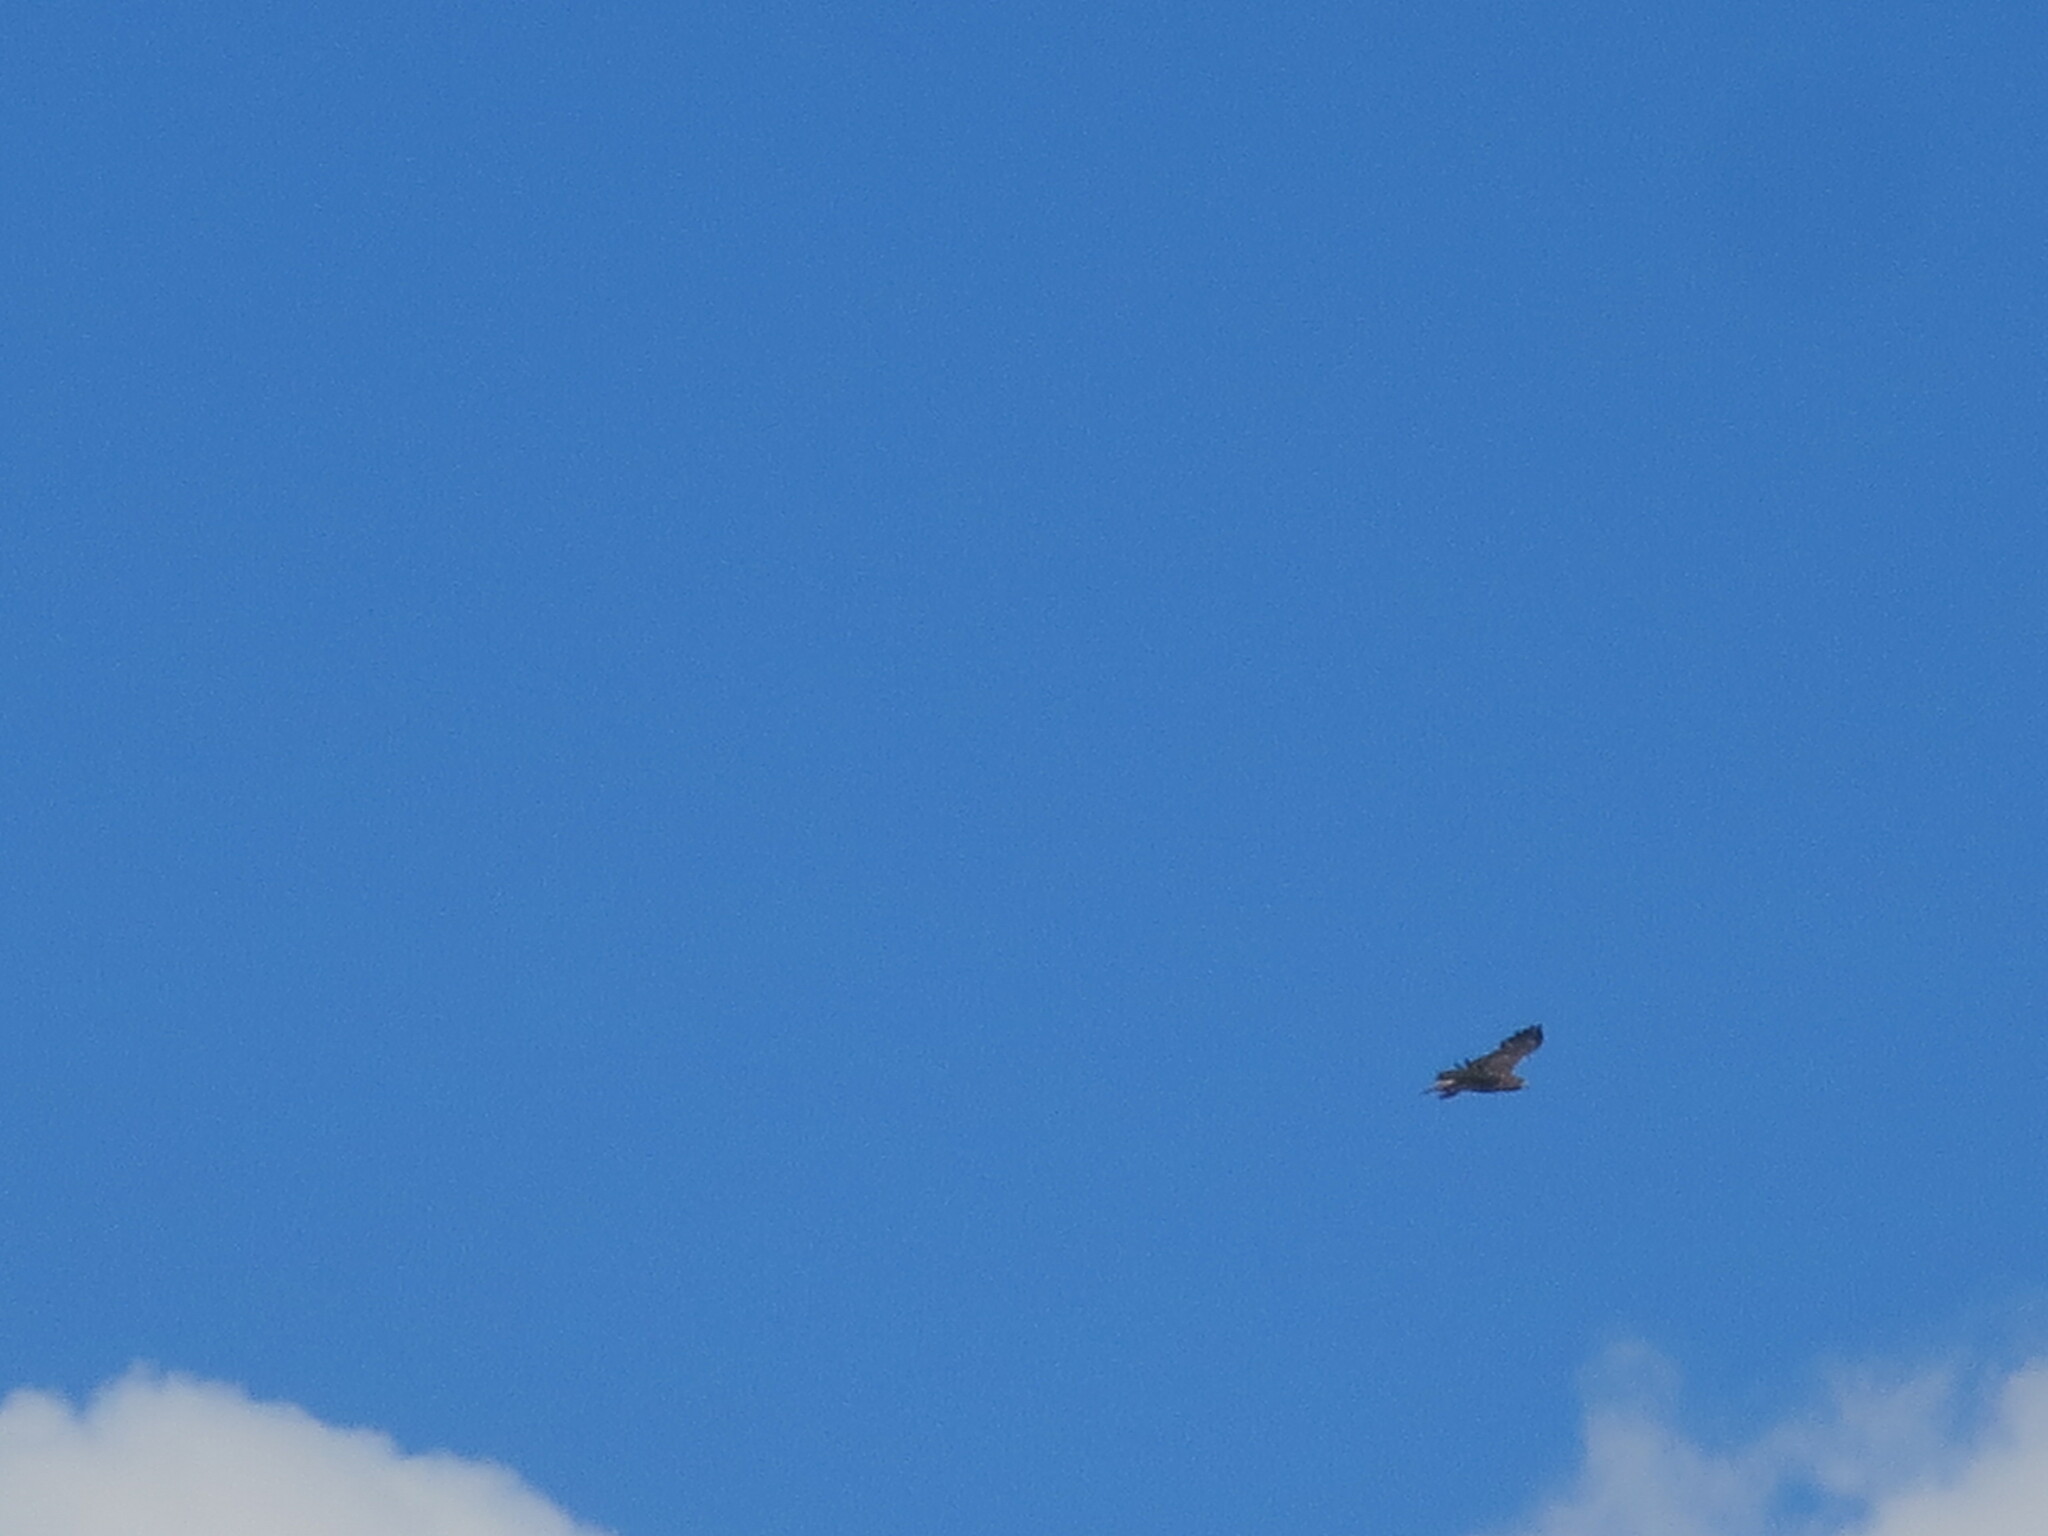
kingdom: Animalia
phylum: Chordata
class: Aves
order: Accipitriformes
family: Accipitridae
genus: Buteo
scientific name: Buteo jamaicensis
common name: Red-tailed hawk
